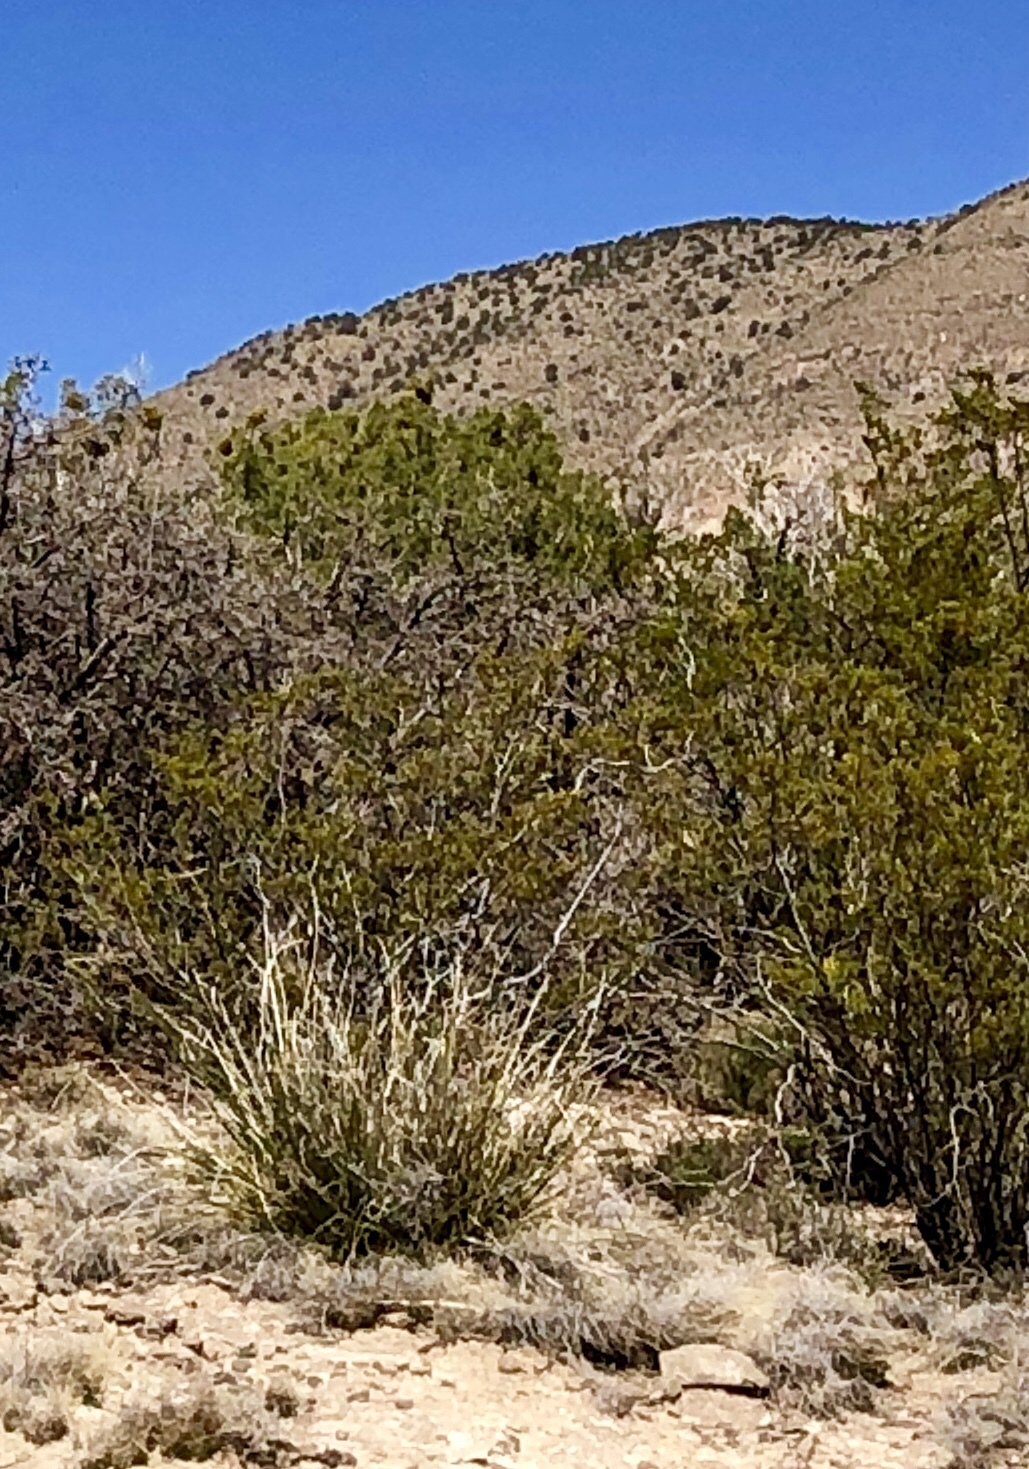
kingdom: Plantae
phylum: Tracheophyta
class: Magnoliopsida
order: Zygophyllales
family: Zygophyllaceae
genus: Larrea
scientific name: Larrea tridentata
